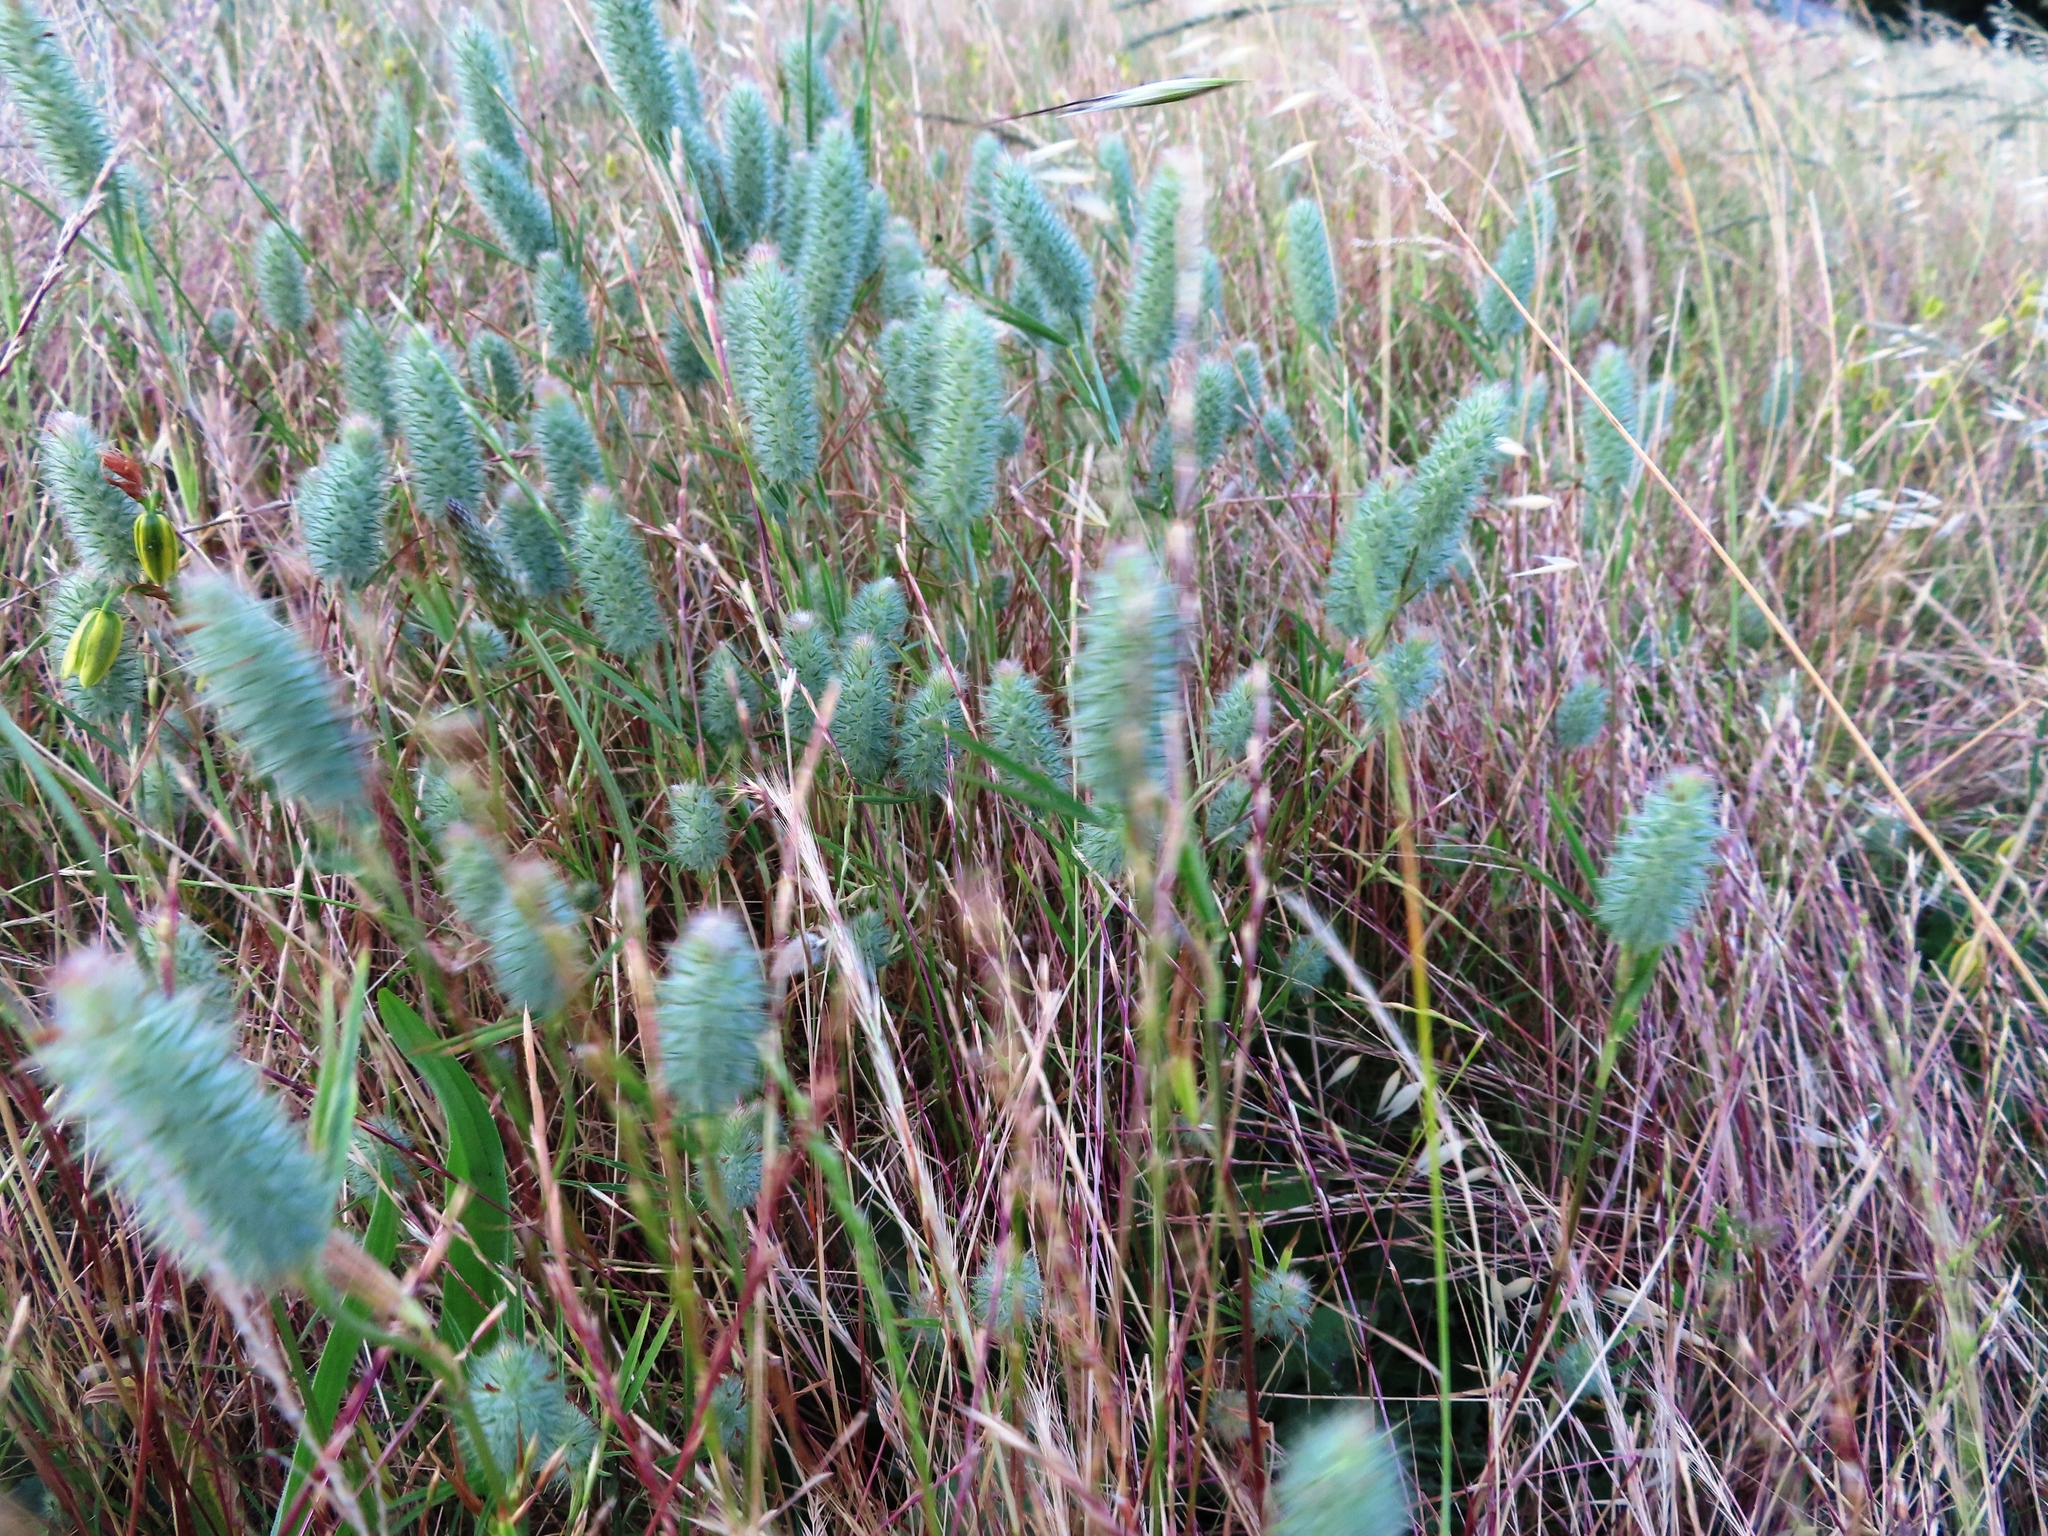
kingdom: Plantae
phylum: Tracheophyta
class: Magnoliopsida
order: Fabales
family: Fabaceae
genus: Trifolium
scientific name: Trifolium angustifolium
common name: Narrow clover
